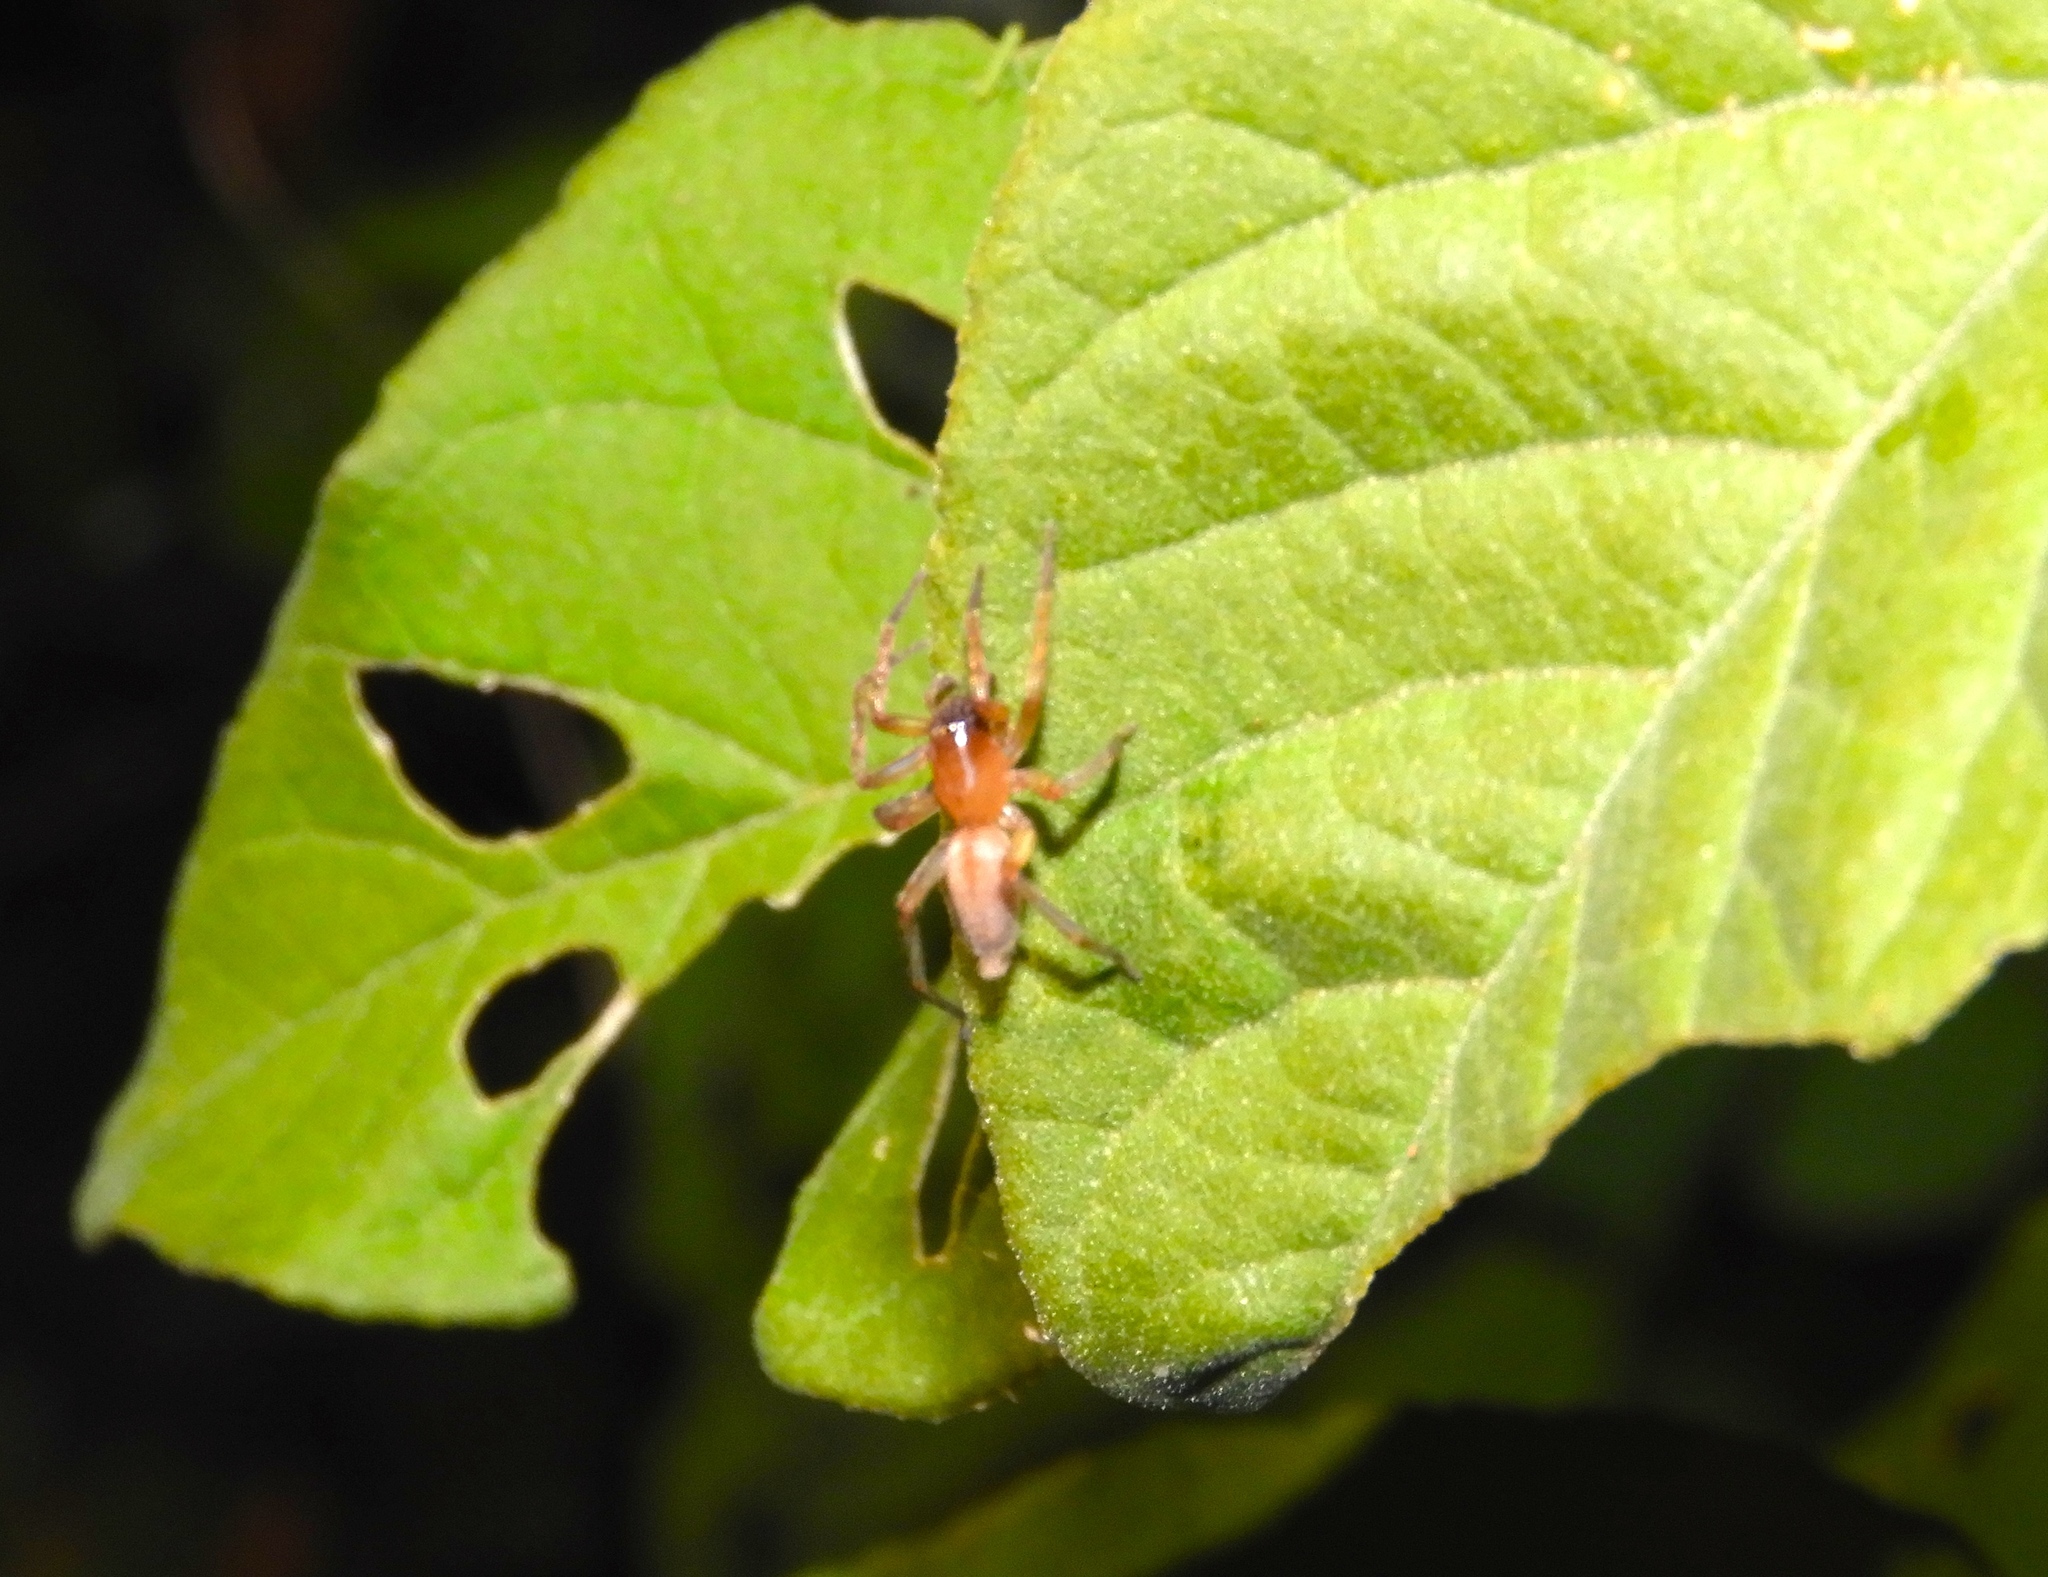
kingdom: Animalia
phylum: Arthropoda
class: Arachnida
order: Araneae
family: Clubionidae
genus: Clubiona
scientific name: Clubiona
